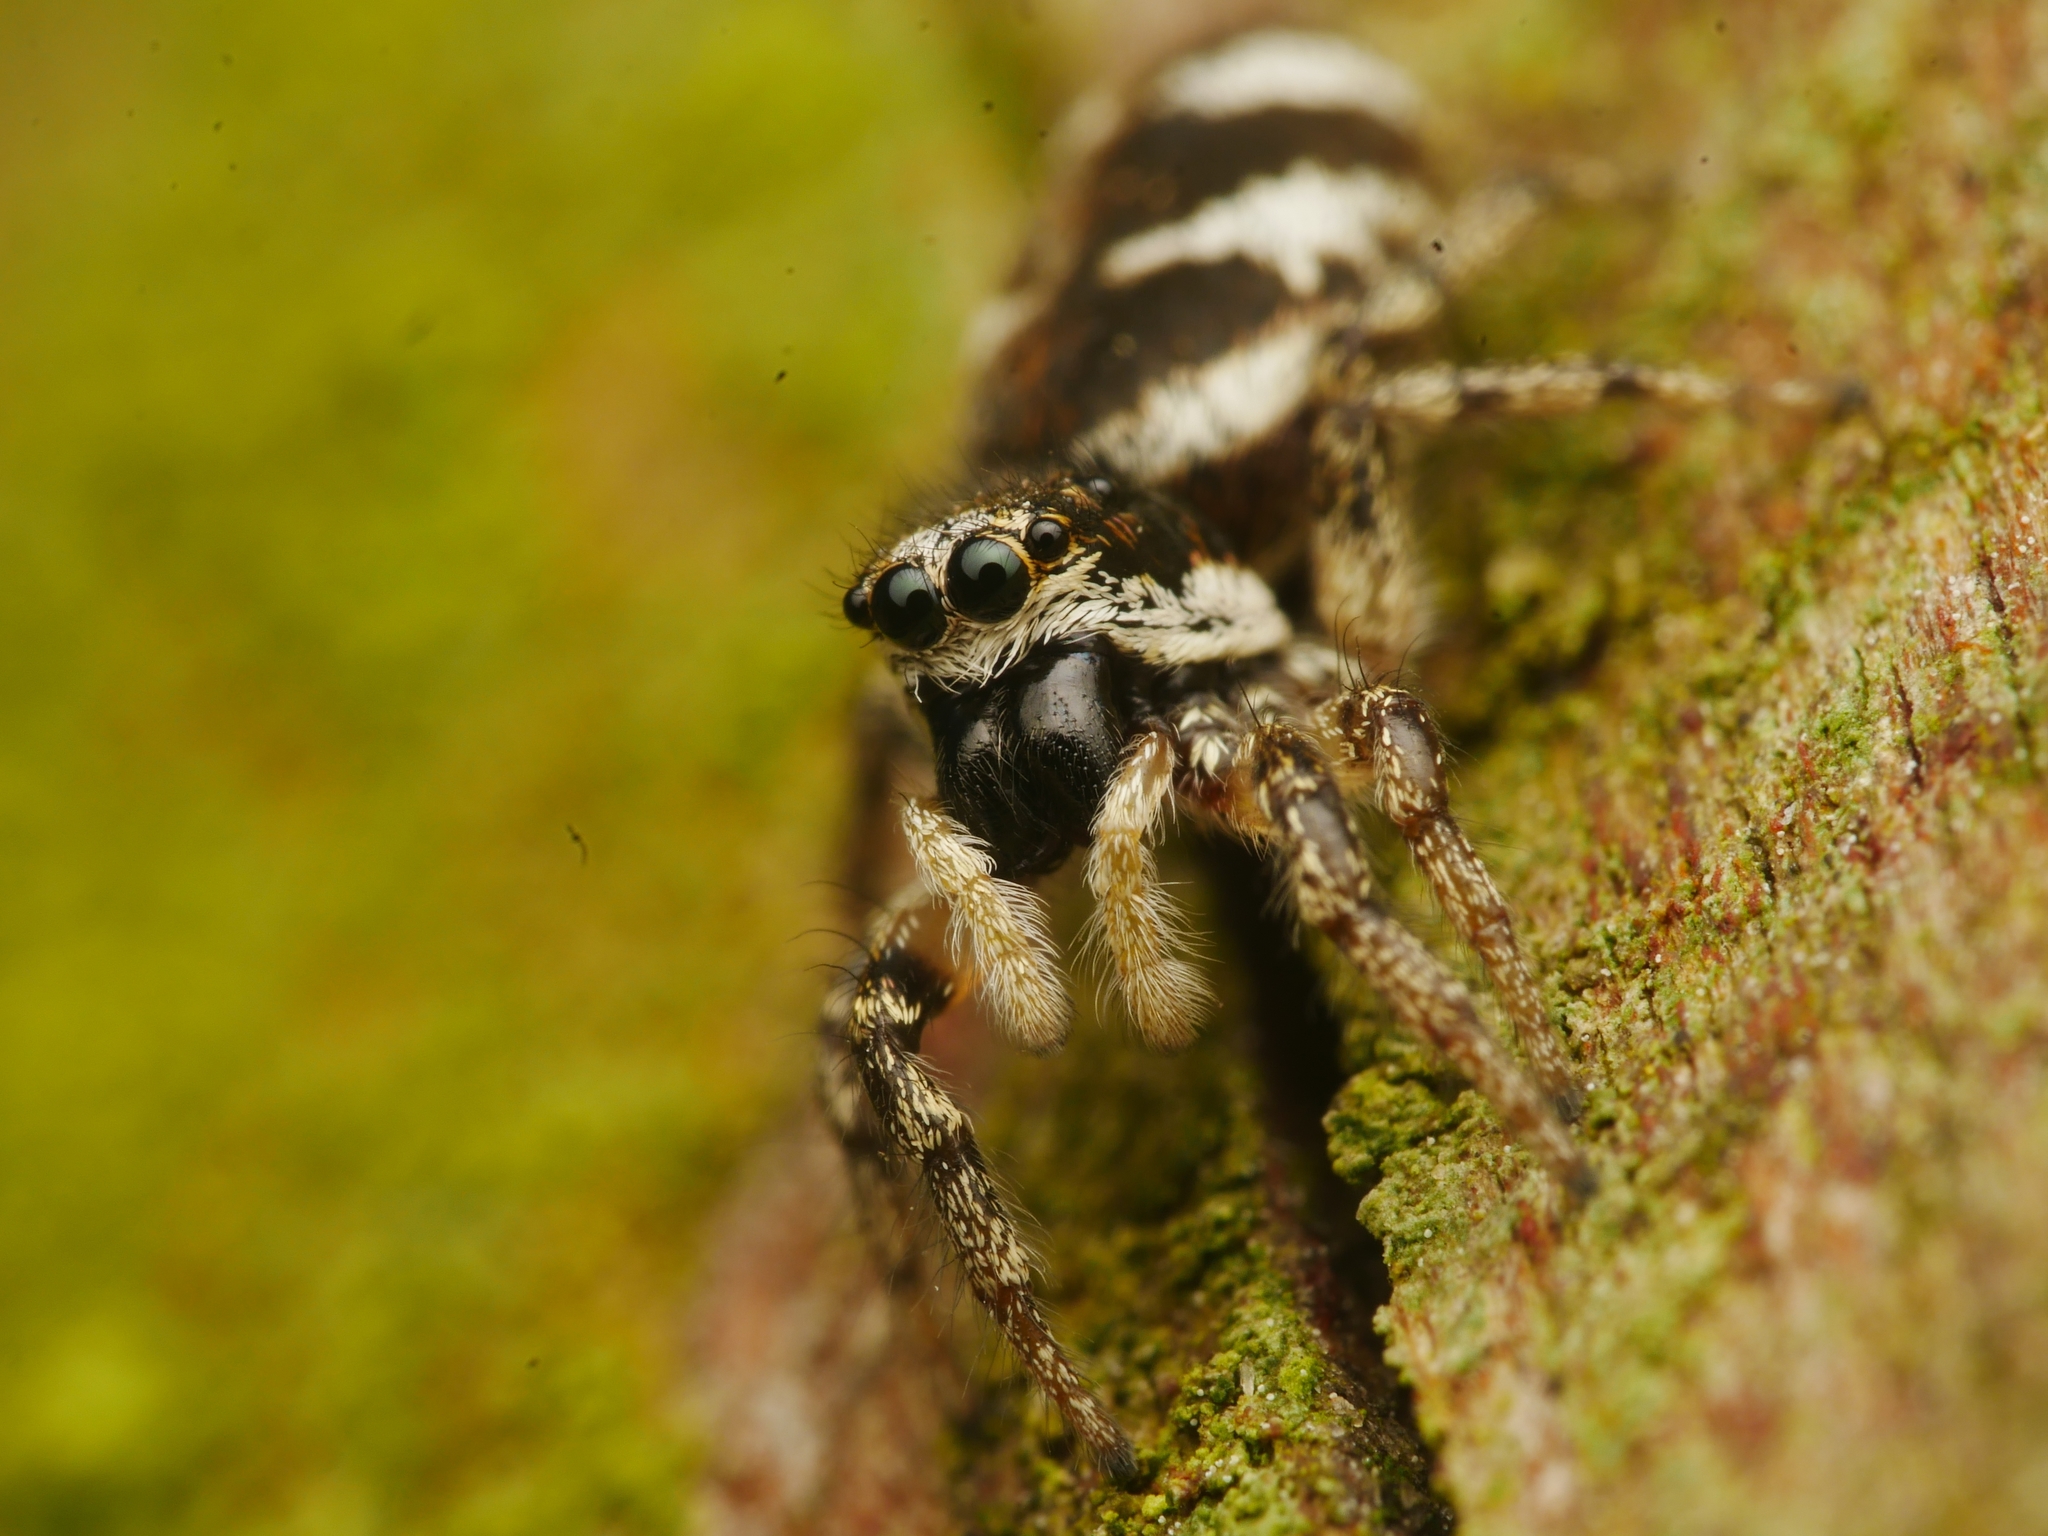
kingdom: Animalia
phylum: Arthropoda
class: Arachnida
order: Araneae
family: Salticidae
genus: Salticus
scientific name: Salticus scenicus
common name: Zebra jumper
